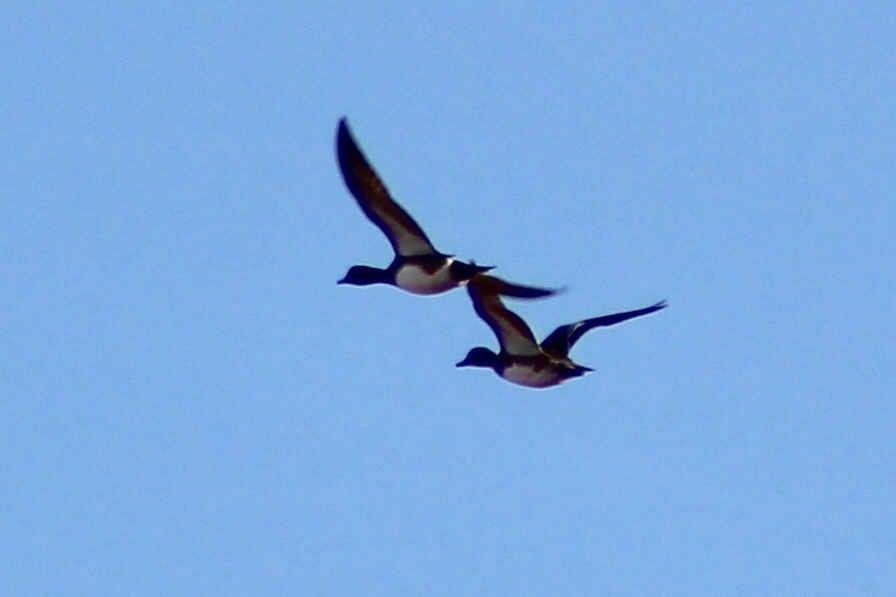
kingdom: Animalia
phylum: Chordata
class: Aves
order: Anseriformes
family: Anatidae
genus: Mareca
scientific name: Mareca americana
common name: American wigeon
